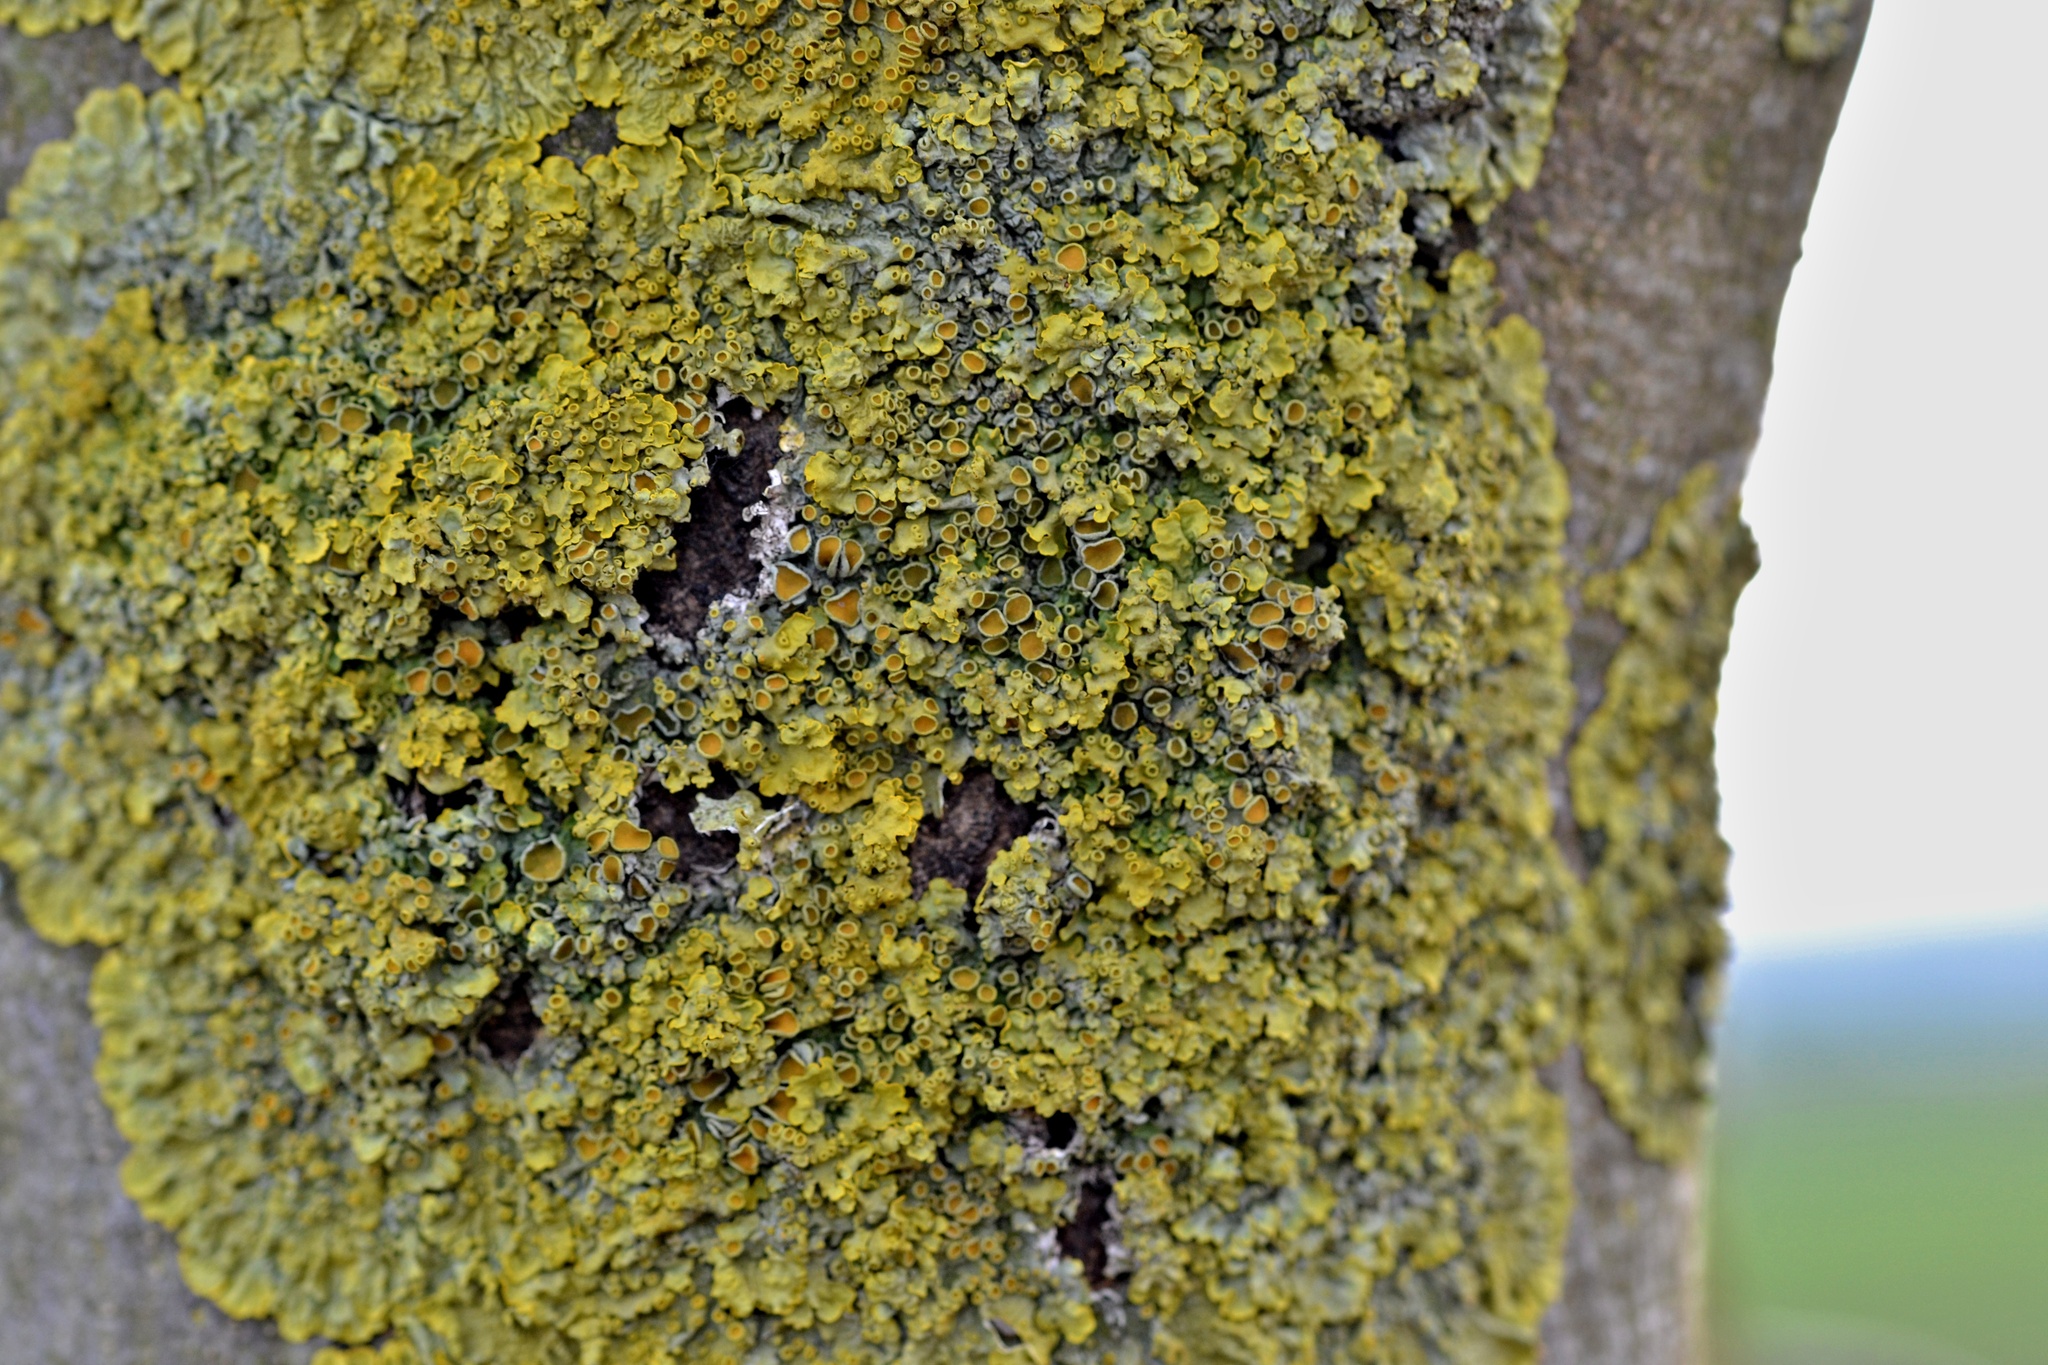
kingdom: Fungi
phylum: Ascomycota
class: Lecanoromycetes
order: Teloschistales
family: Teloschistaceae
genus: Xanthoria
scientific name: Xanthoria parietina
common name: Common orange lichen
